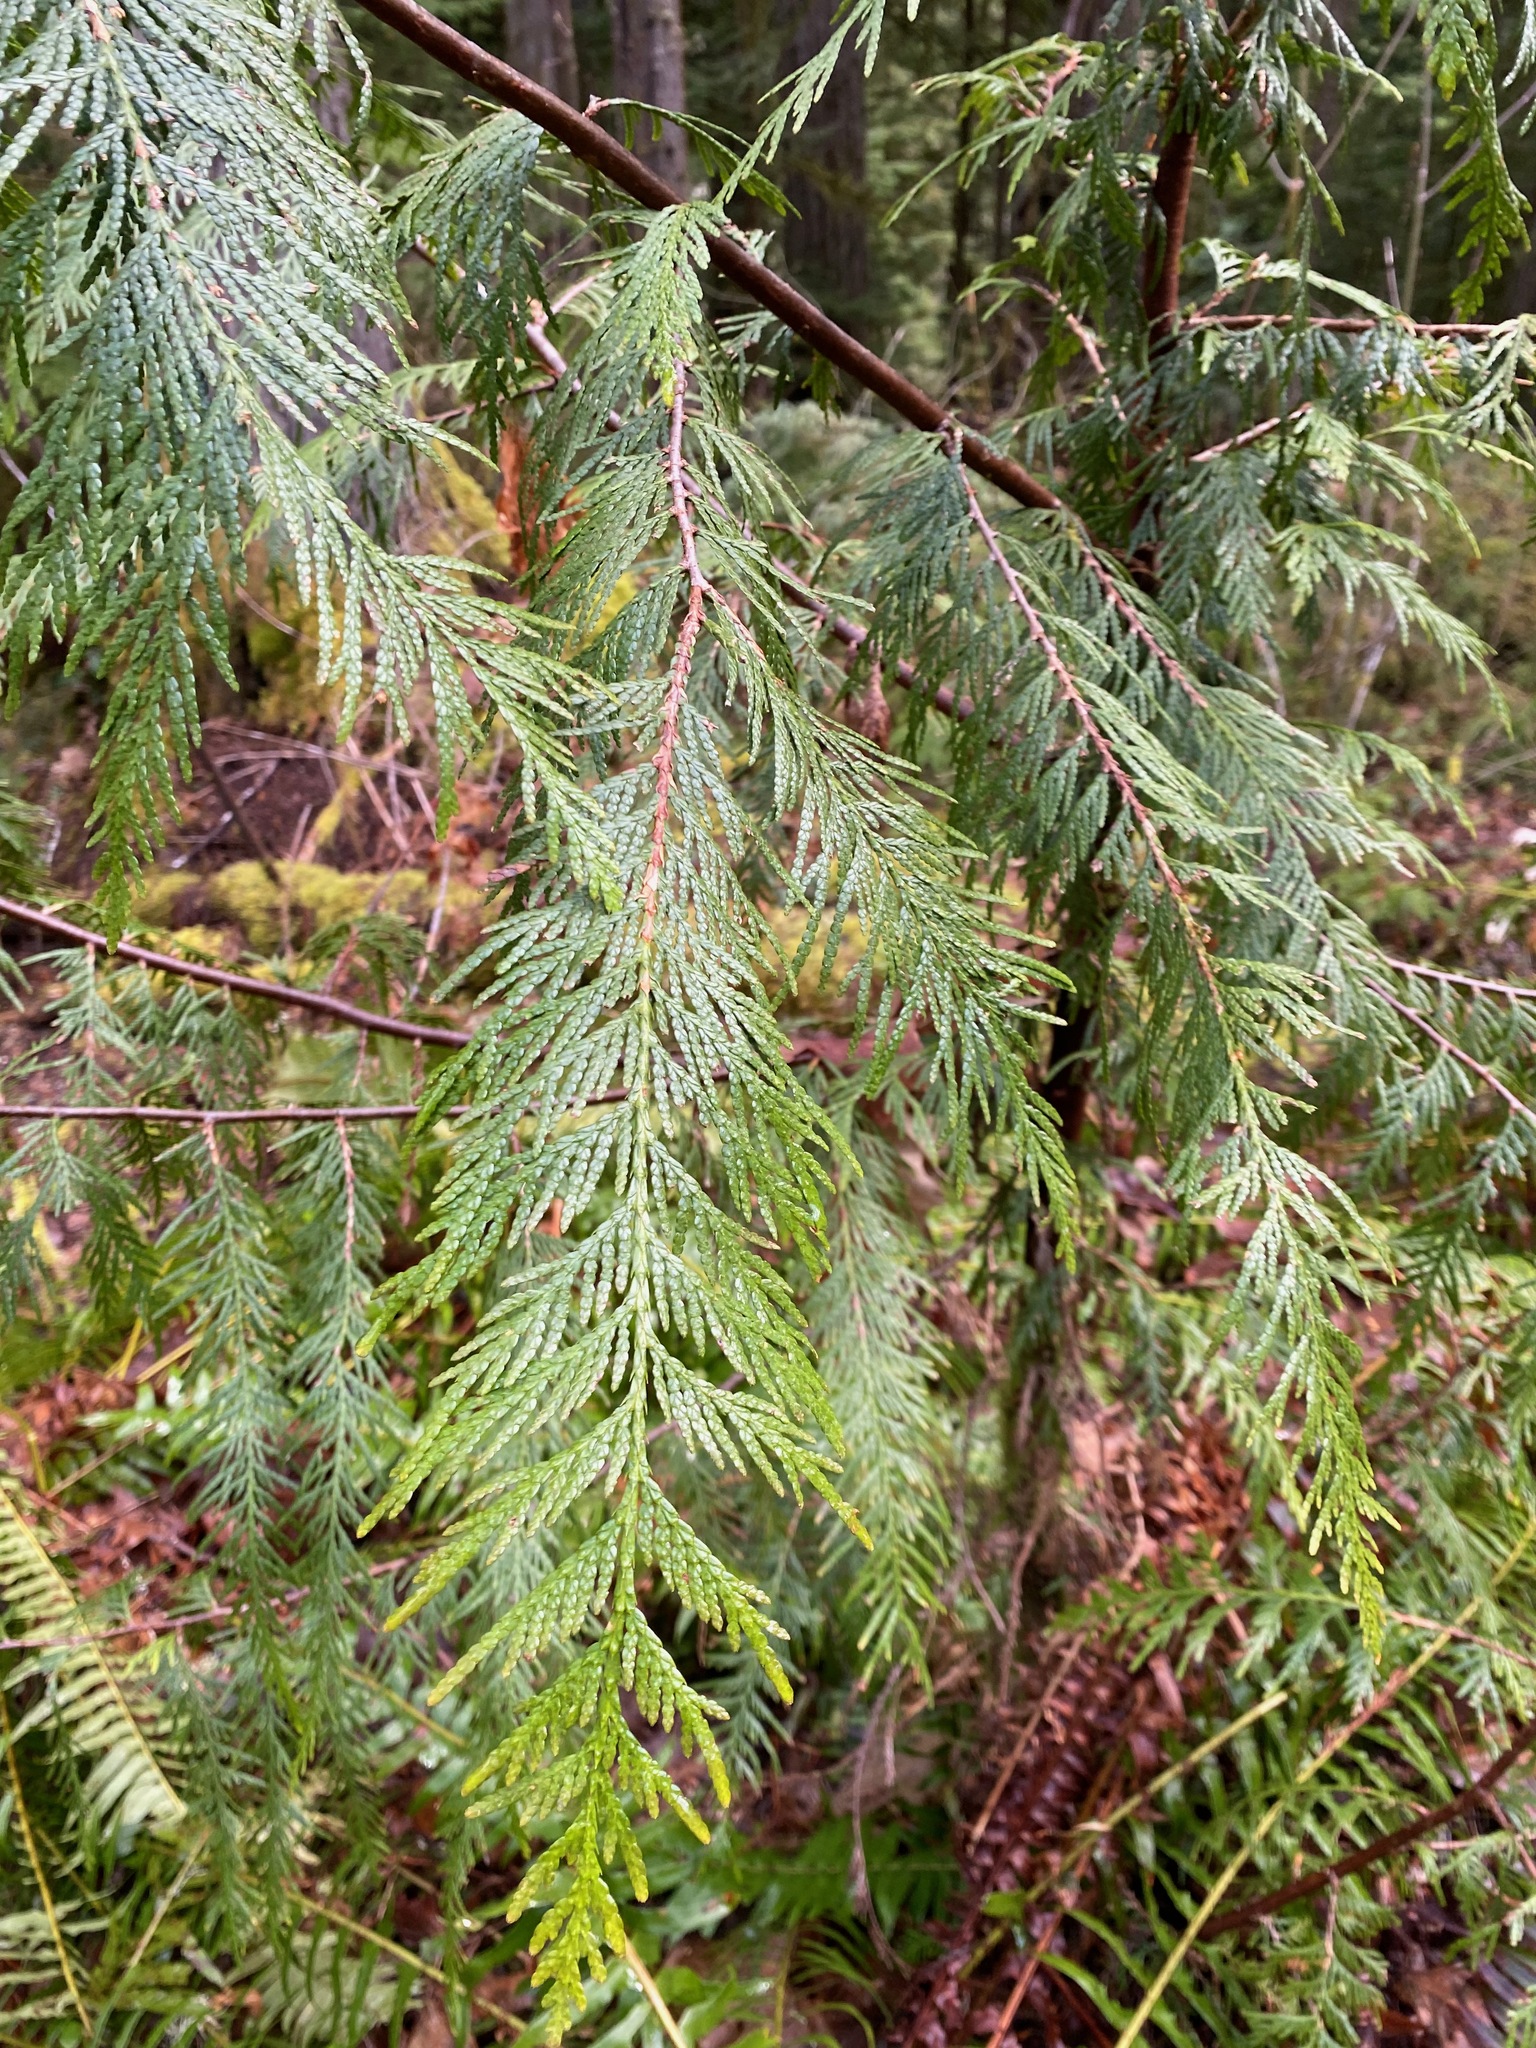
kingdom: Plantae
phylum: Tracheophyta
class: Pinopsida
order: Pinales
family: Cupressaceae
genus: Thuja
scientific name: Thuja plicata
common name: Western red-cedar
